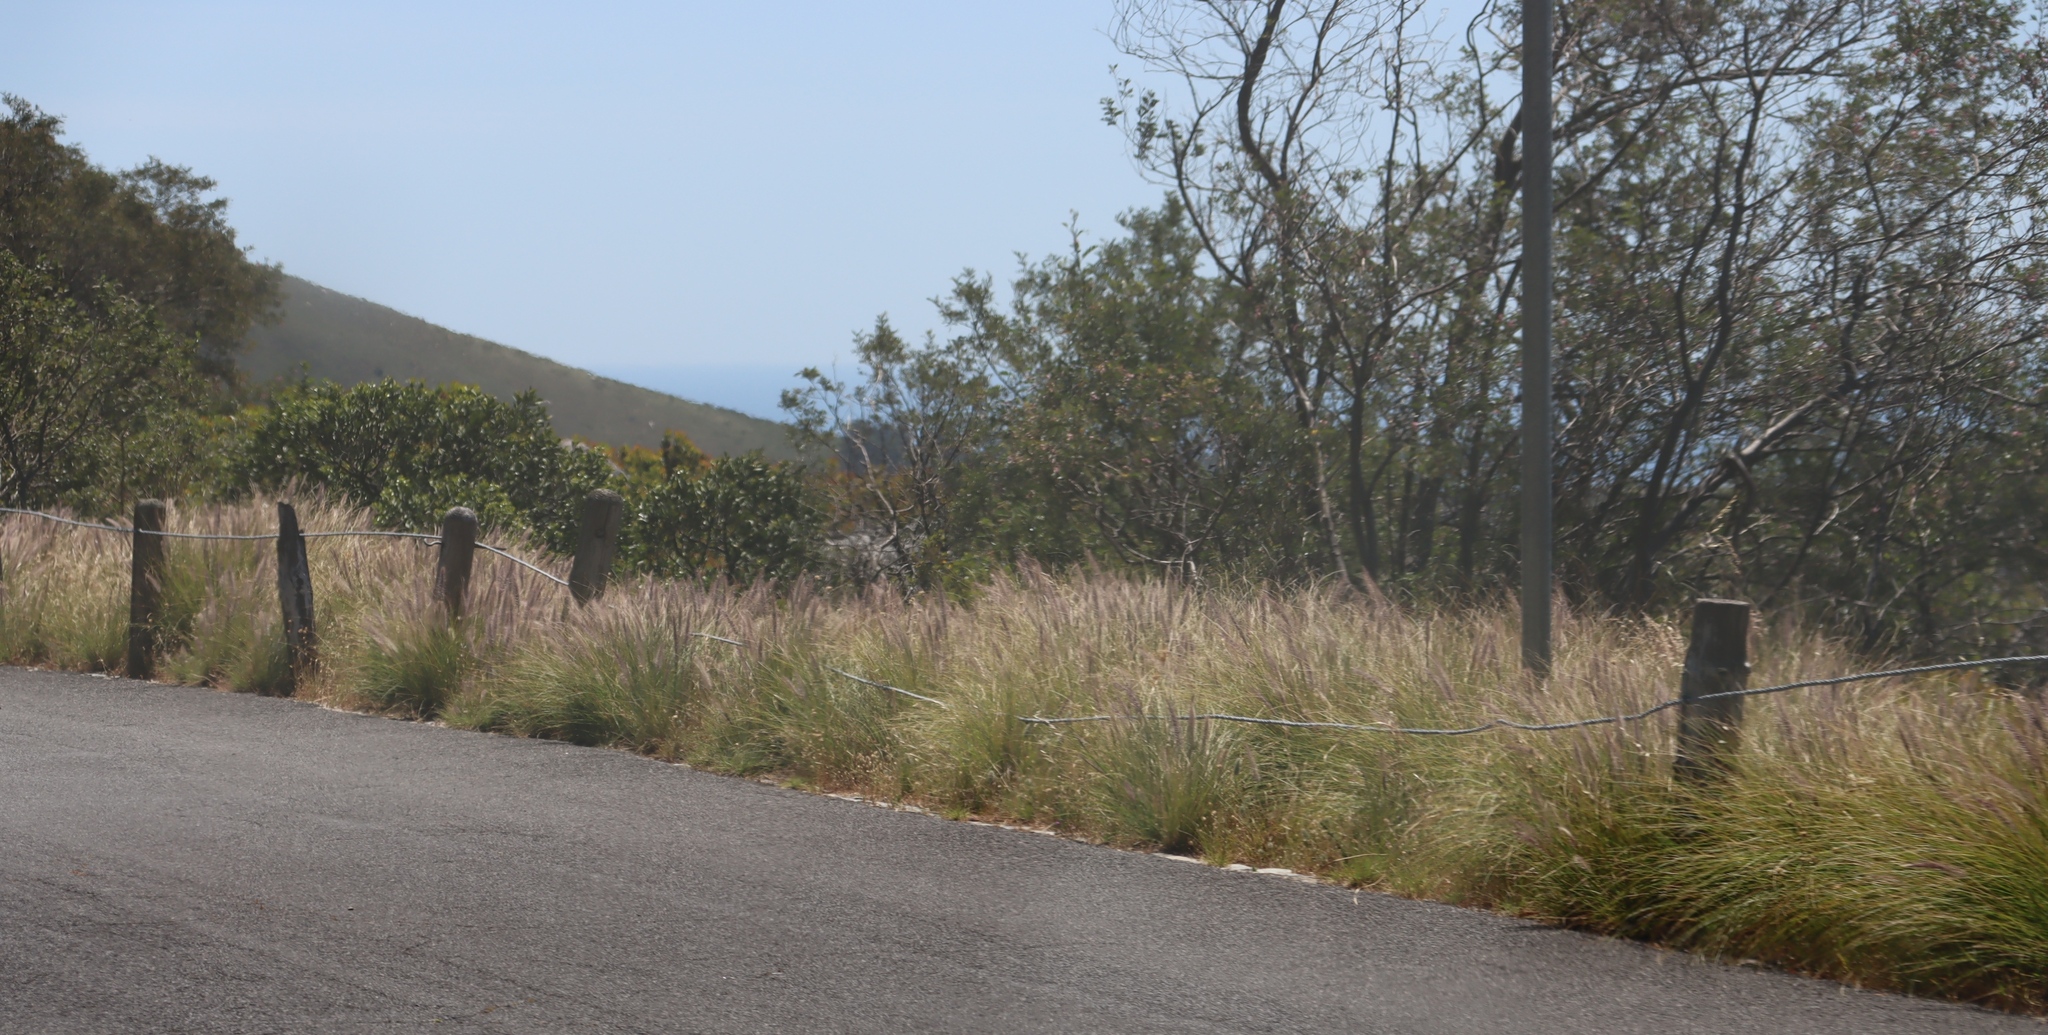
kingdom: Plantae
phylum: Tracheophyta
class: Liliopsida
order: Poales
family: Poaceae
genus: Cenchrus
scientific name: Cenchrus setaceus
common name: Crimson fountaingrass
